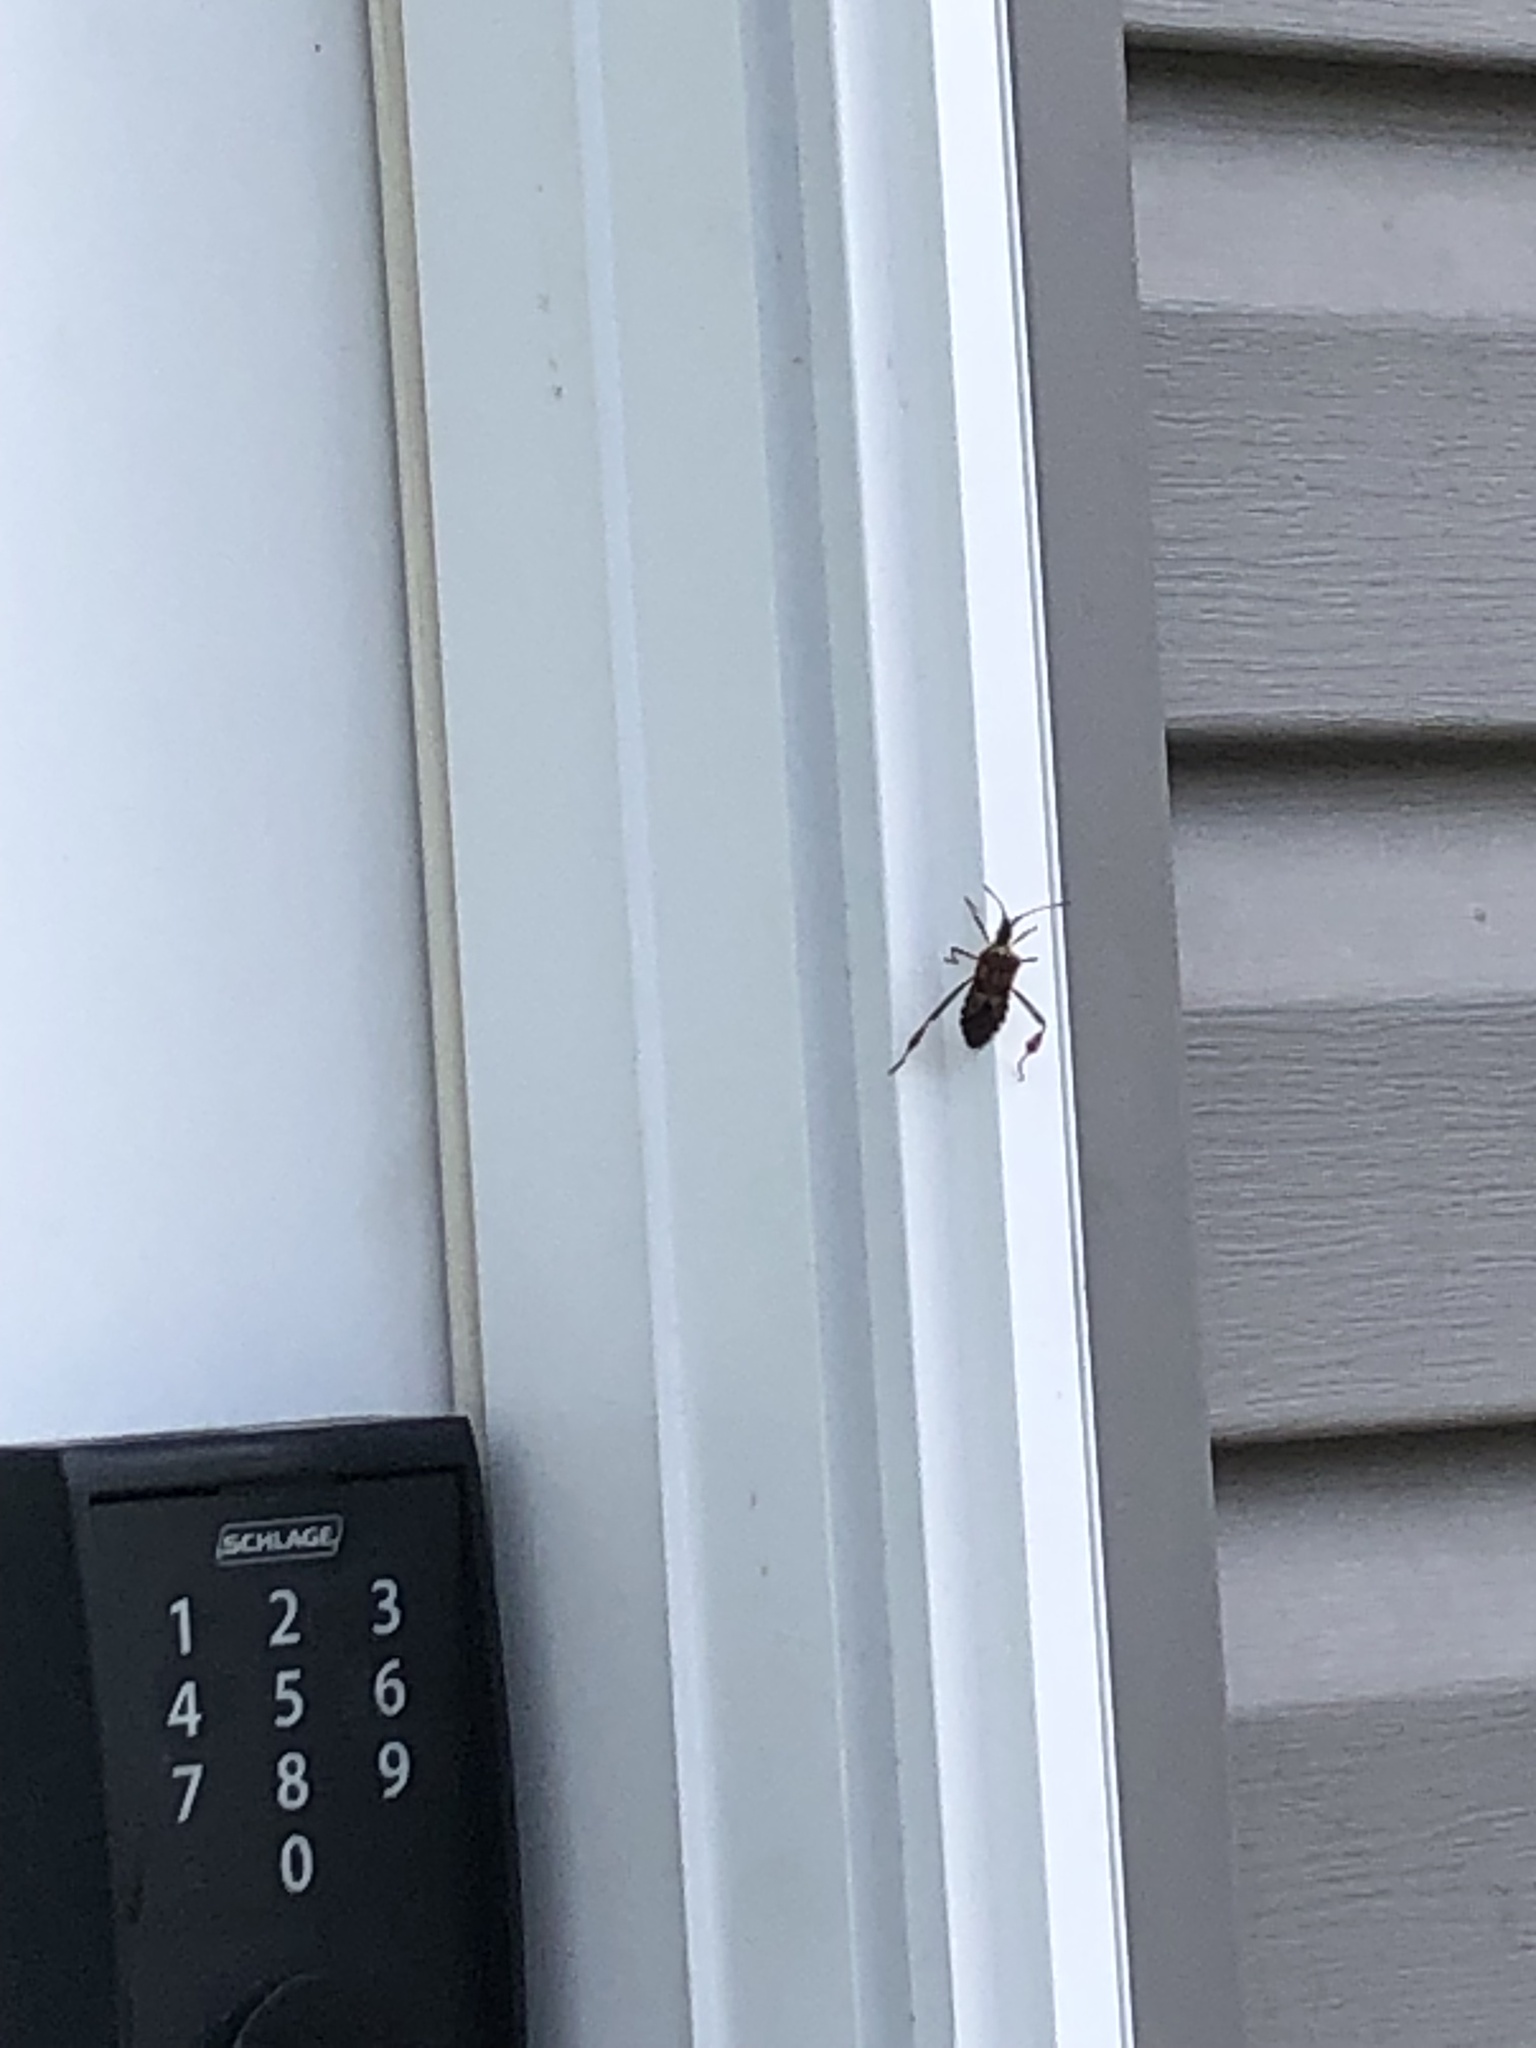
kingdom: Animalia
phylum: Arthropoda
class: Insecta
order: Hemiptera
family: Coreidae
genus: Leptoglossus
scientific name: Leptoglossus occidentalis
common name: Western conifer-seed bug
